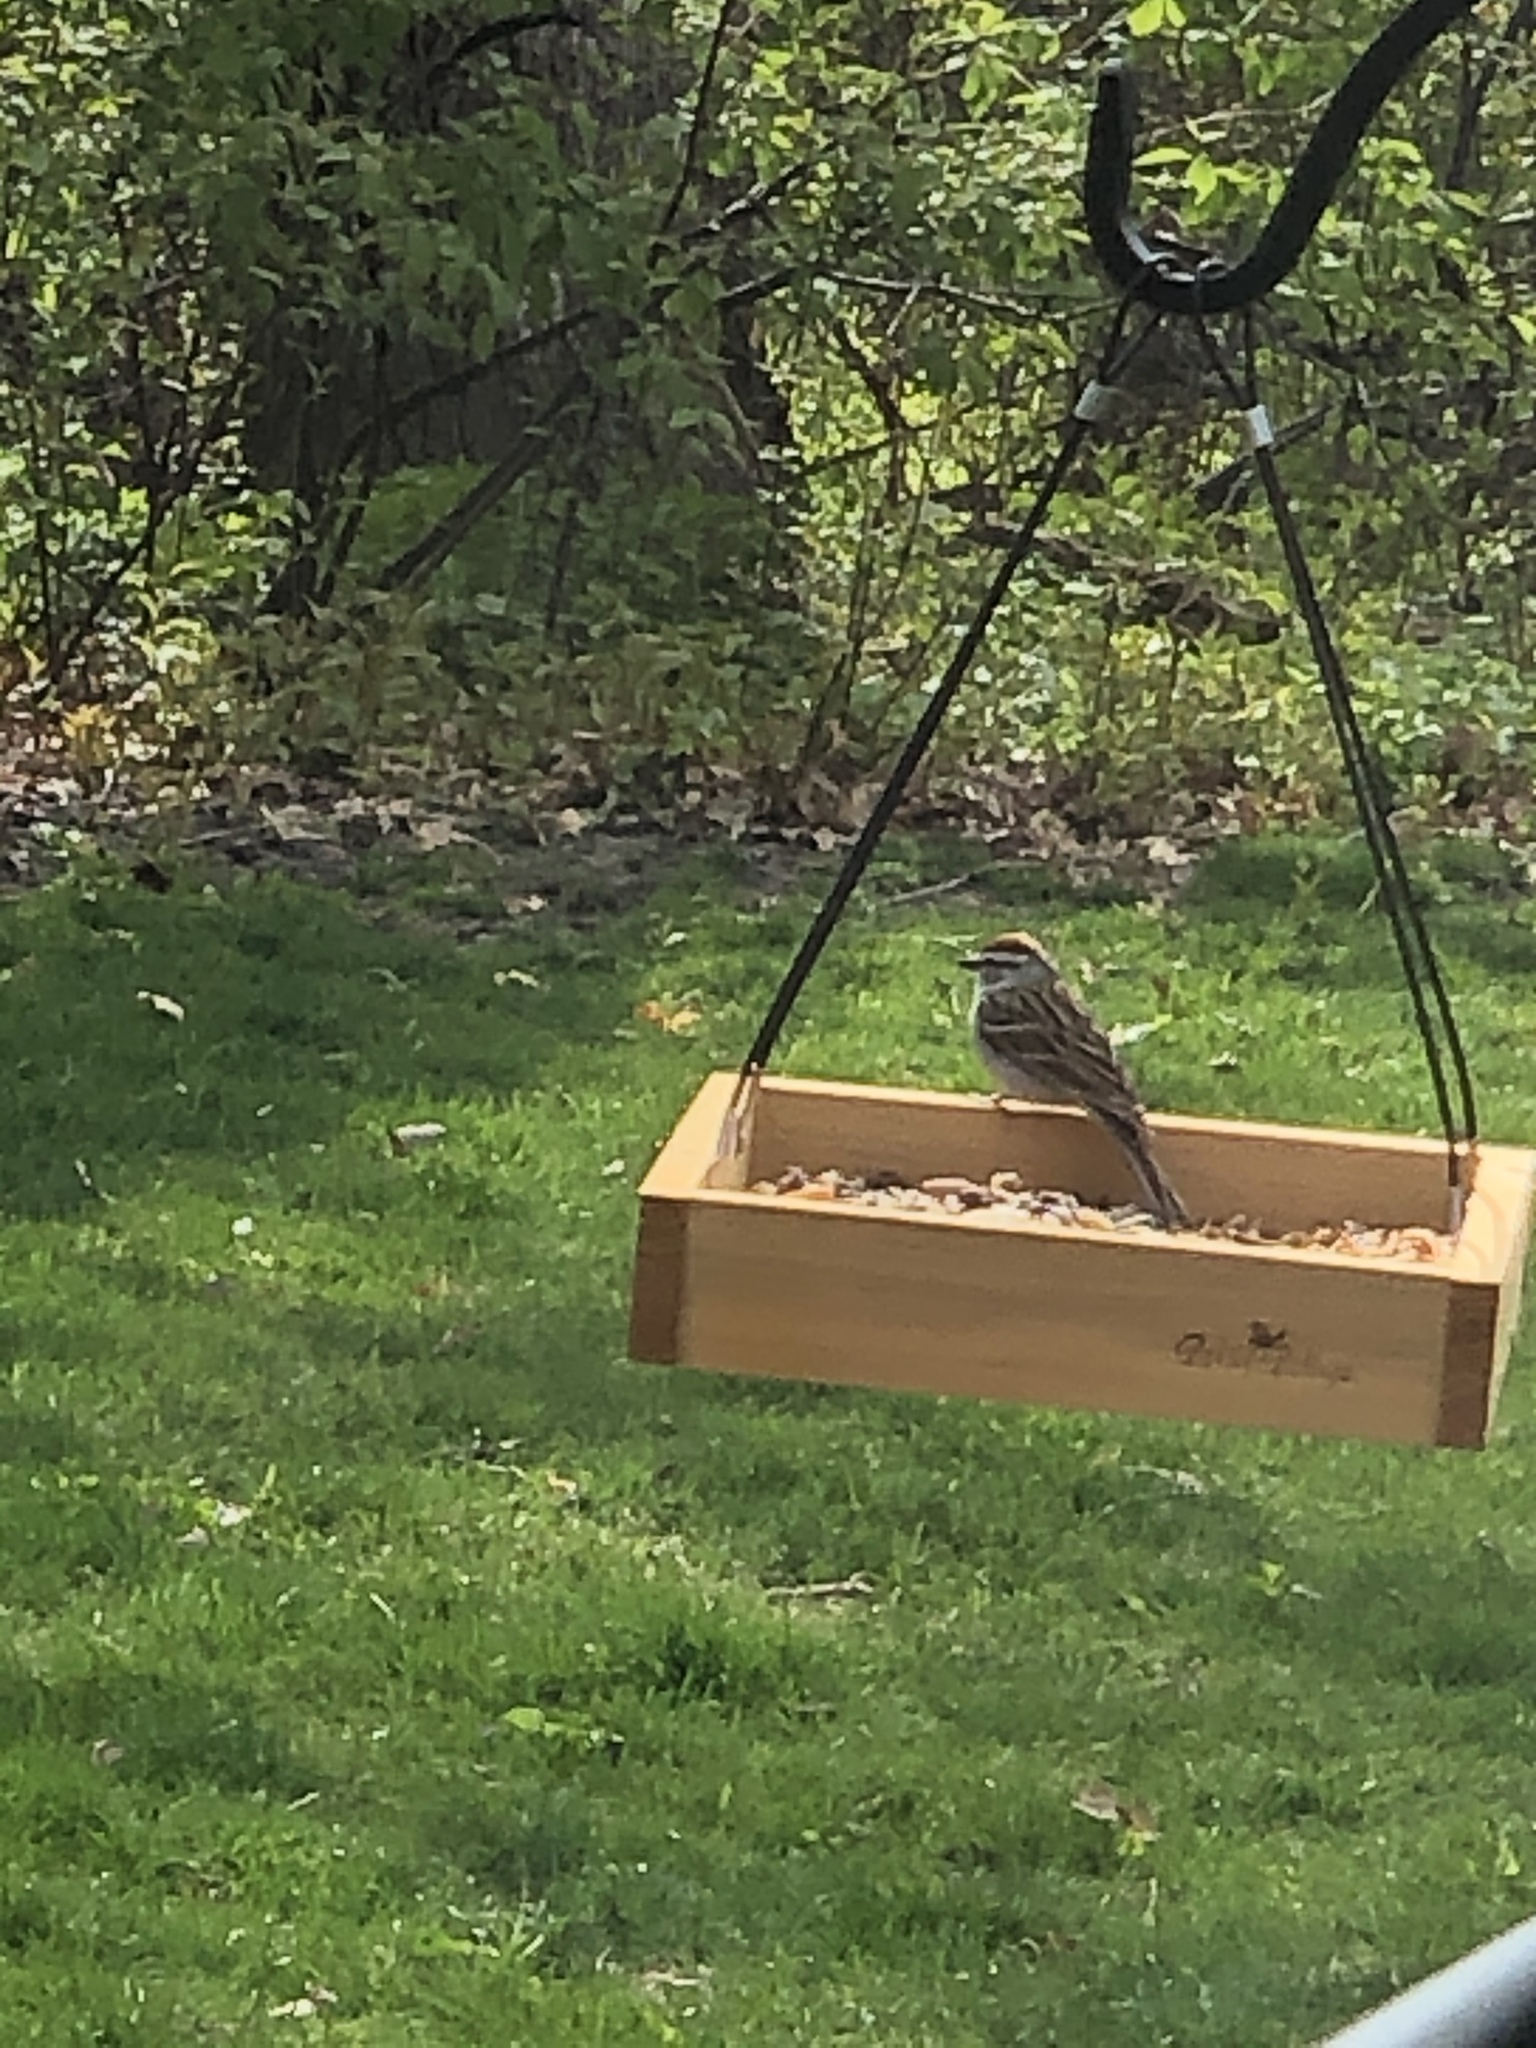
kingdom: Animalia
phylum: Chordata
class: Aves
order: Passeriformes
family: Passerellidae
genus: Spizella
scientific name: Spizella passerina
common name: Chipping sparrow
